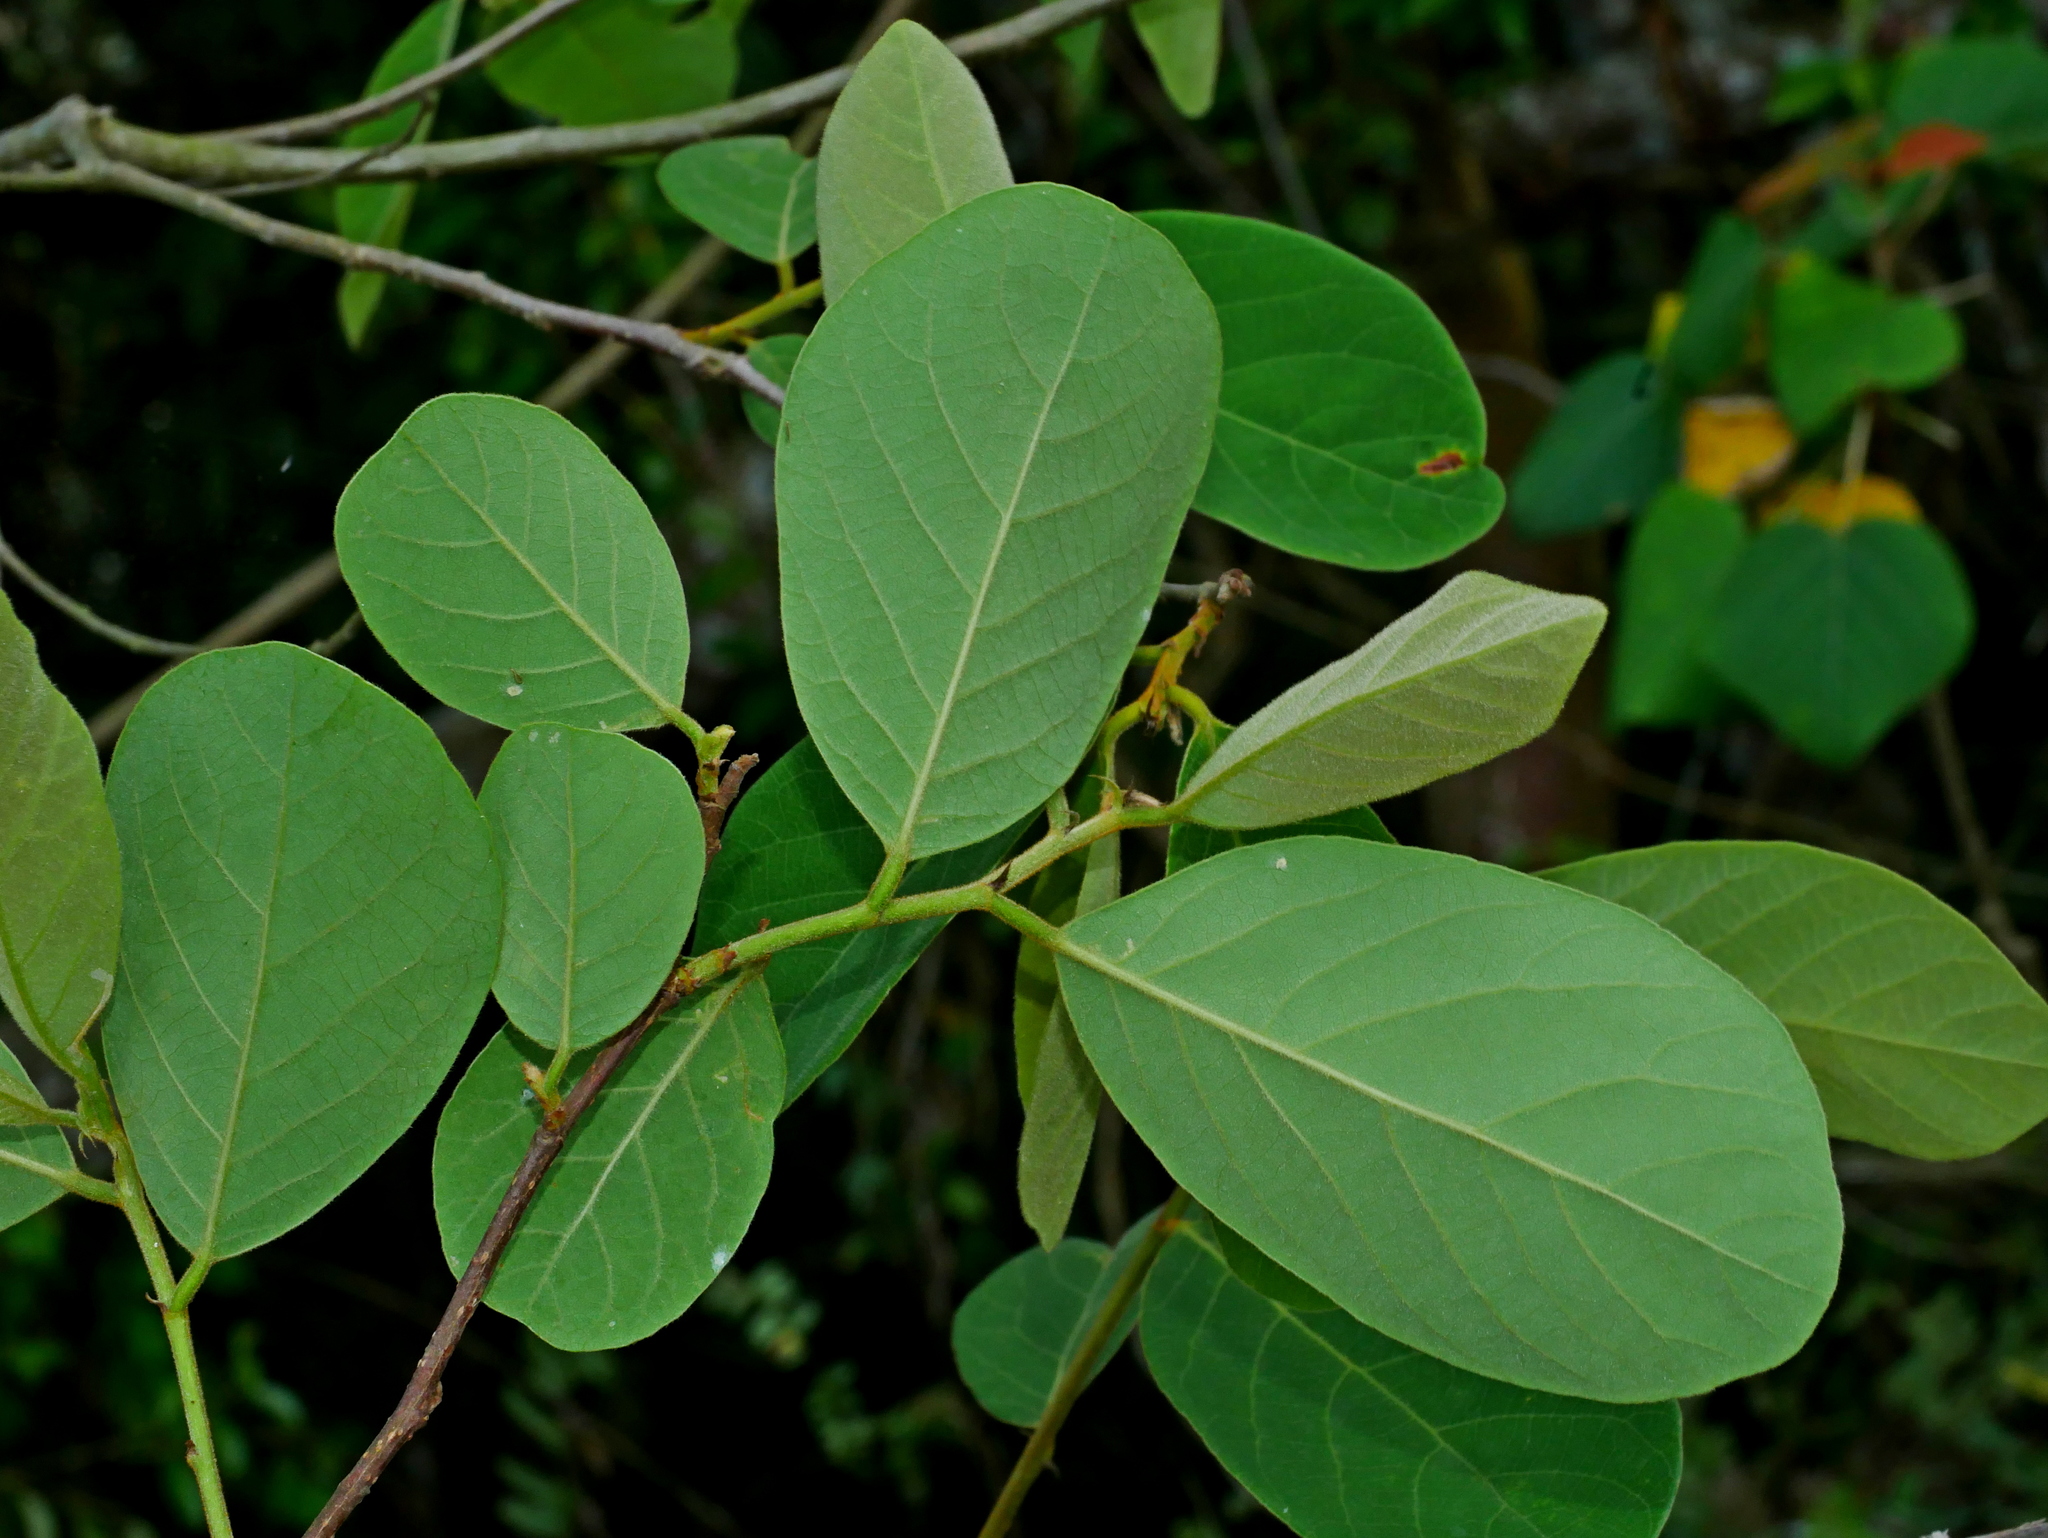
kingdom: Plantae
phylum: Tracheophyta
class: Magnoliopsida
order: Malpighiales
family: Phyllanthaceae
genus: Bridelia
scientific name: Bridelia tomentosa
